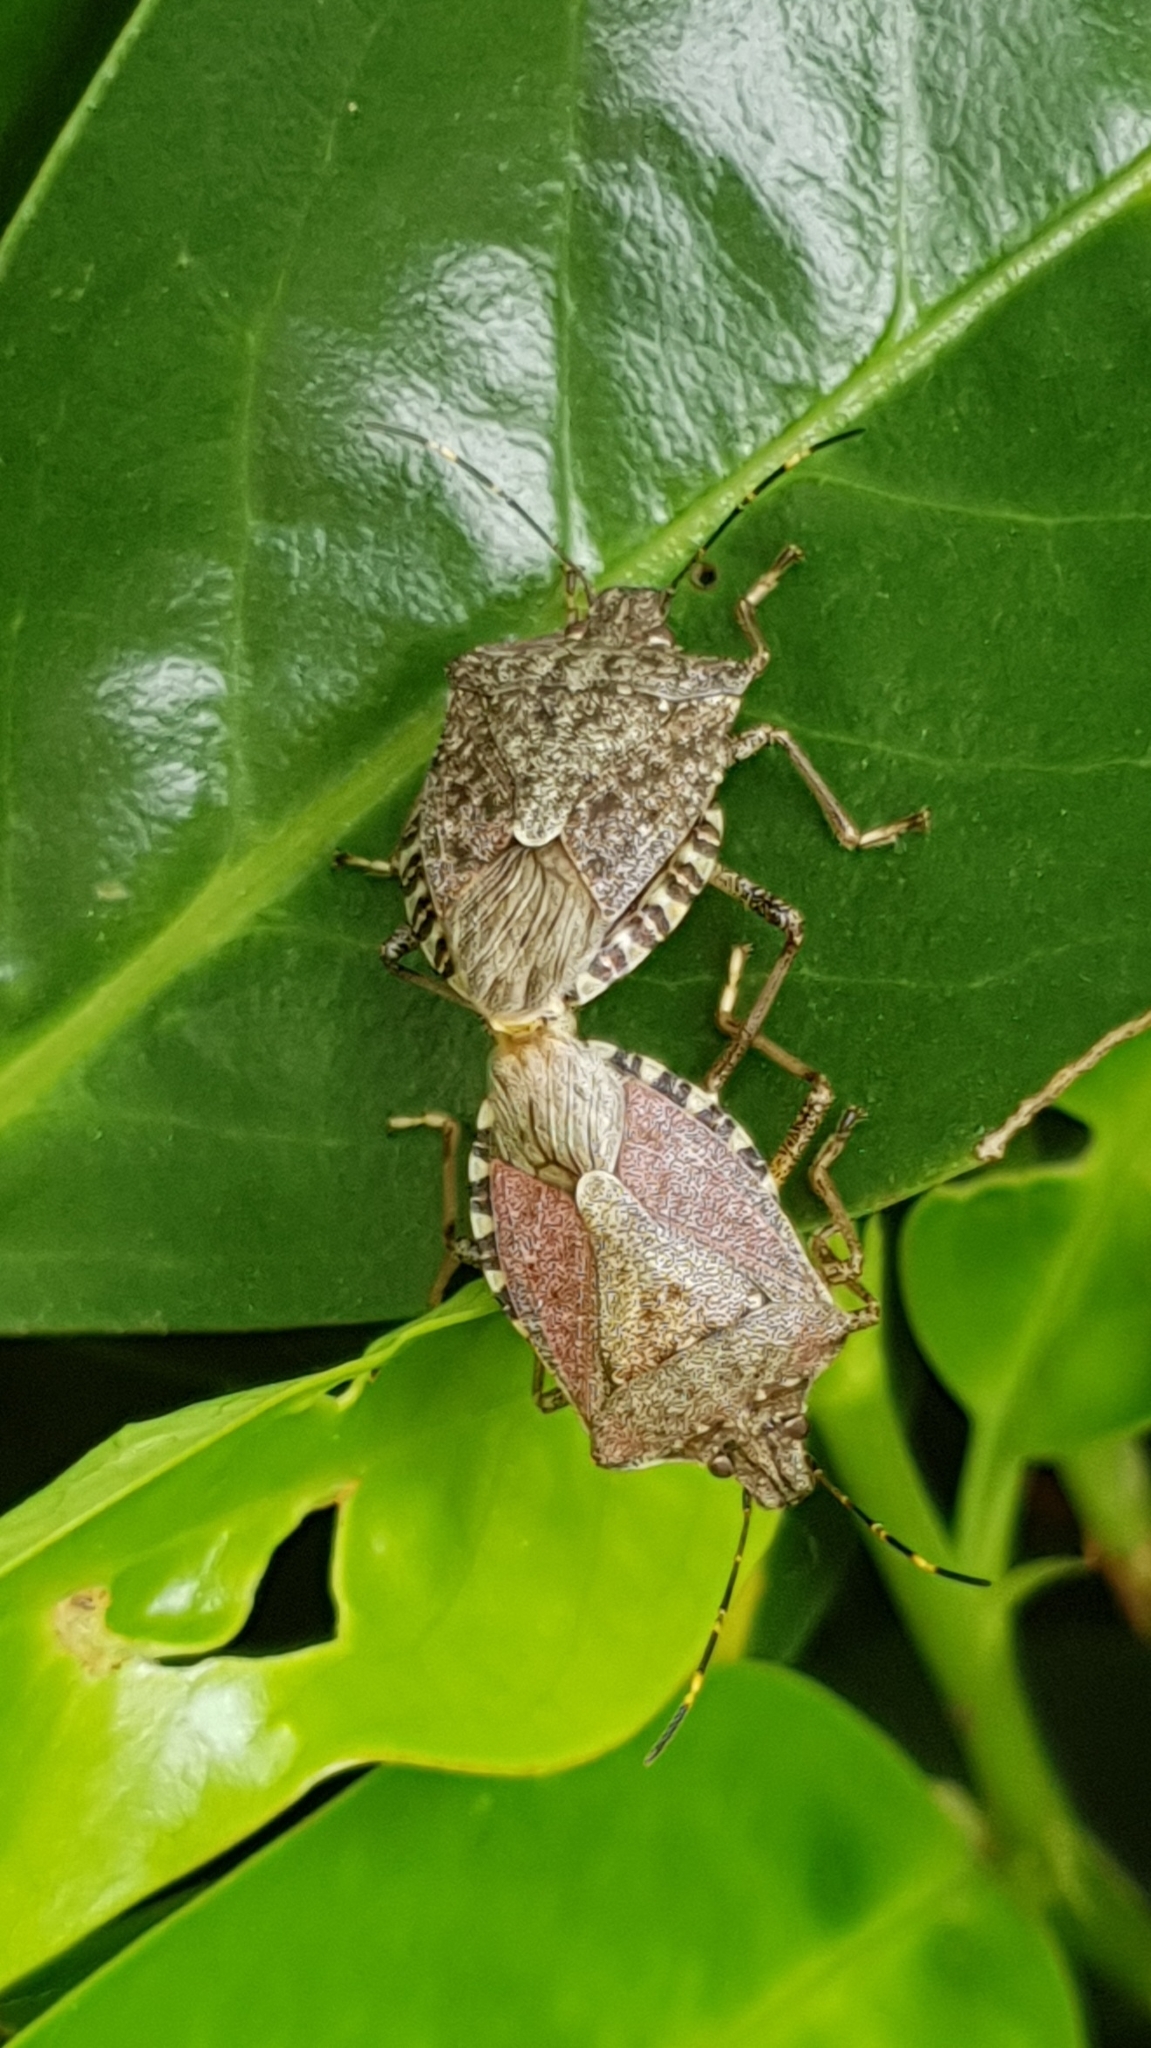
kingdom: Animalia
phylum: Arthropoda
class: Insecta
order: Hemiptera
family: Pentatomidae
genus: Halyomorpha
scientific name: Halyomorpha halys
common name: Brown marmorated stink bug
